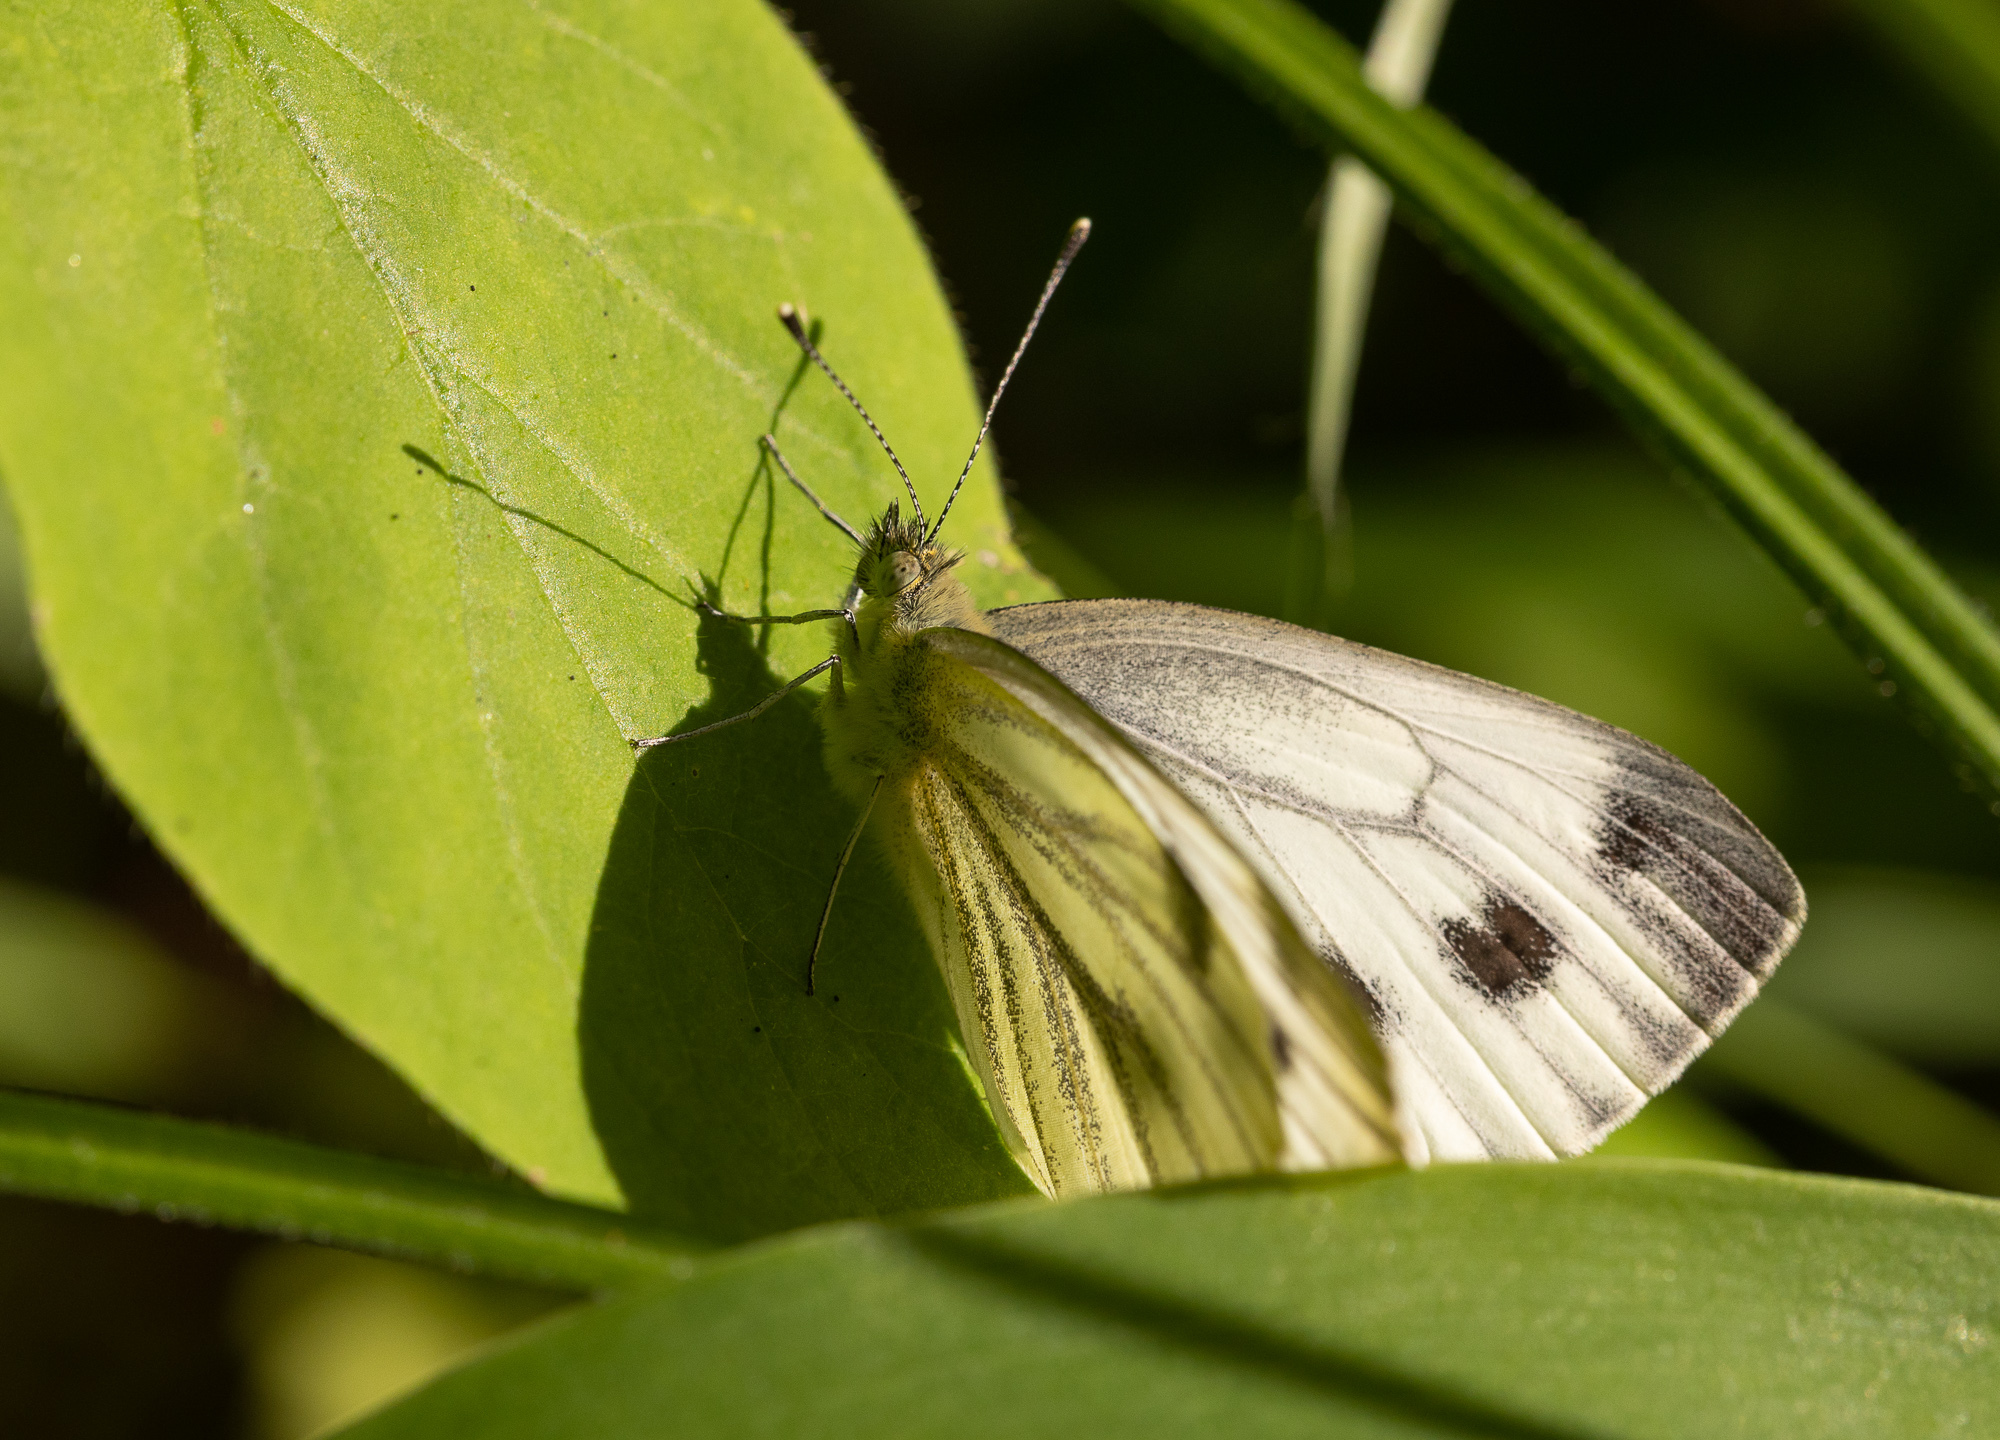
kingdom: Animalia
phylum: Arthropoda
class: Insecta
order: Lepidoptera
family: Pieridae
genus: Pieris
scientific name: Pieris napi
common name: Green-veined white
